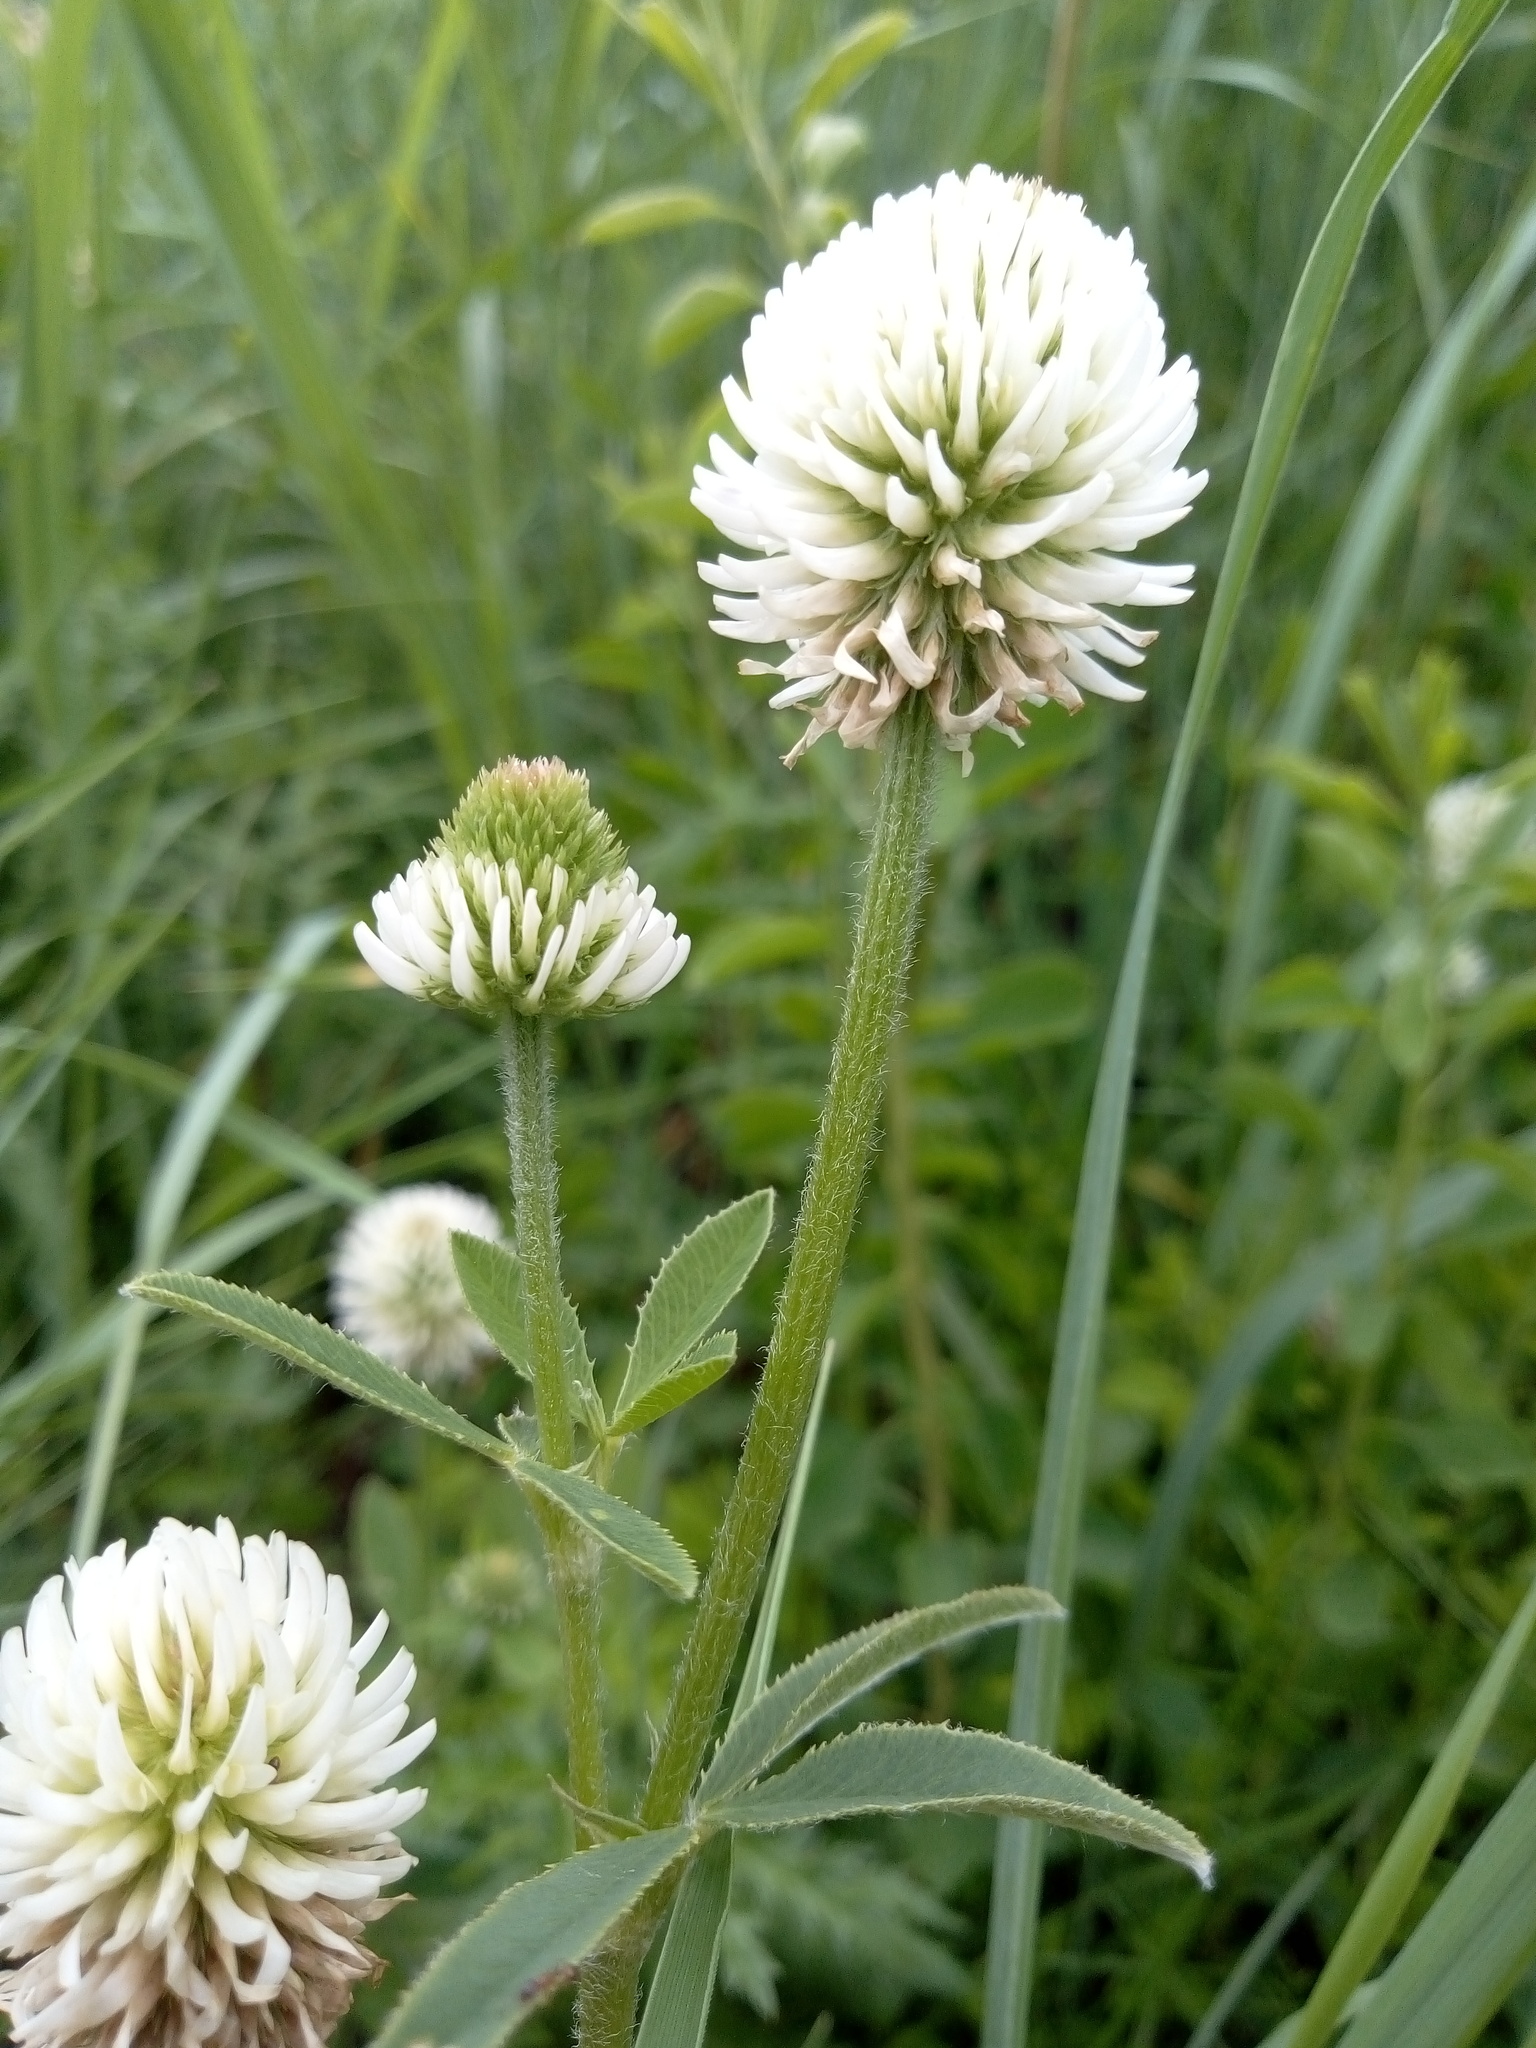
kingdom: Plantae
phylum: Tracheophyta
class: Magnoliopsida
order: Fabales
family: Fabaceae
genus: Trifolium
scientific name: Trifolium montanum
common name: Mountain clover
